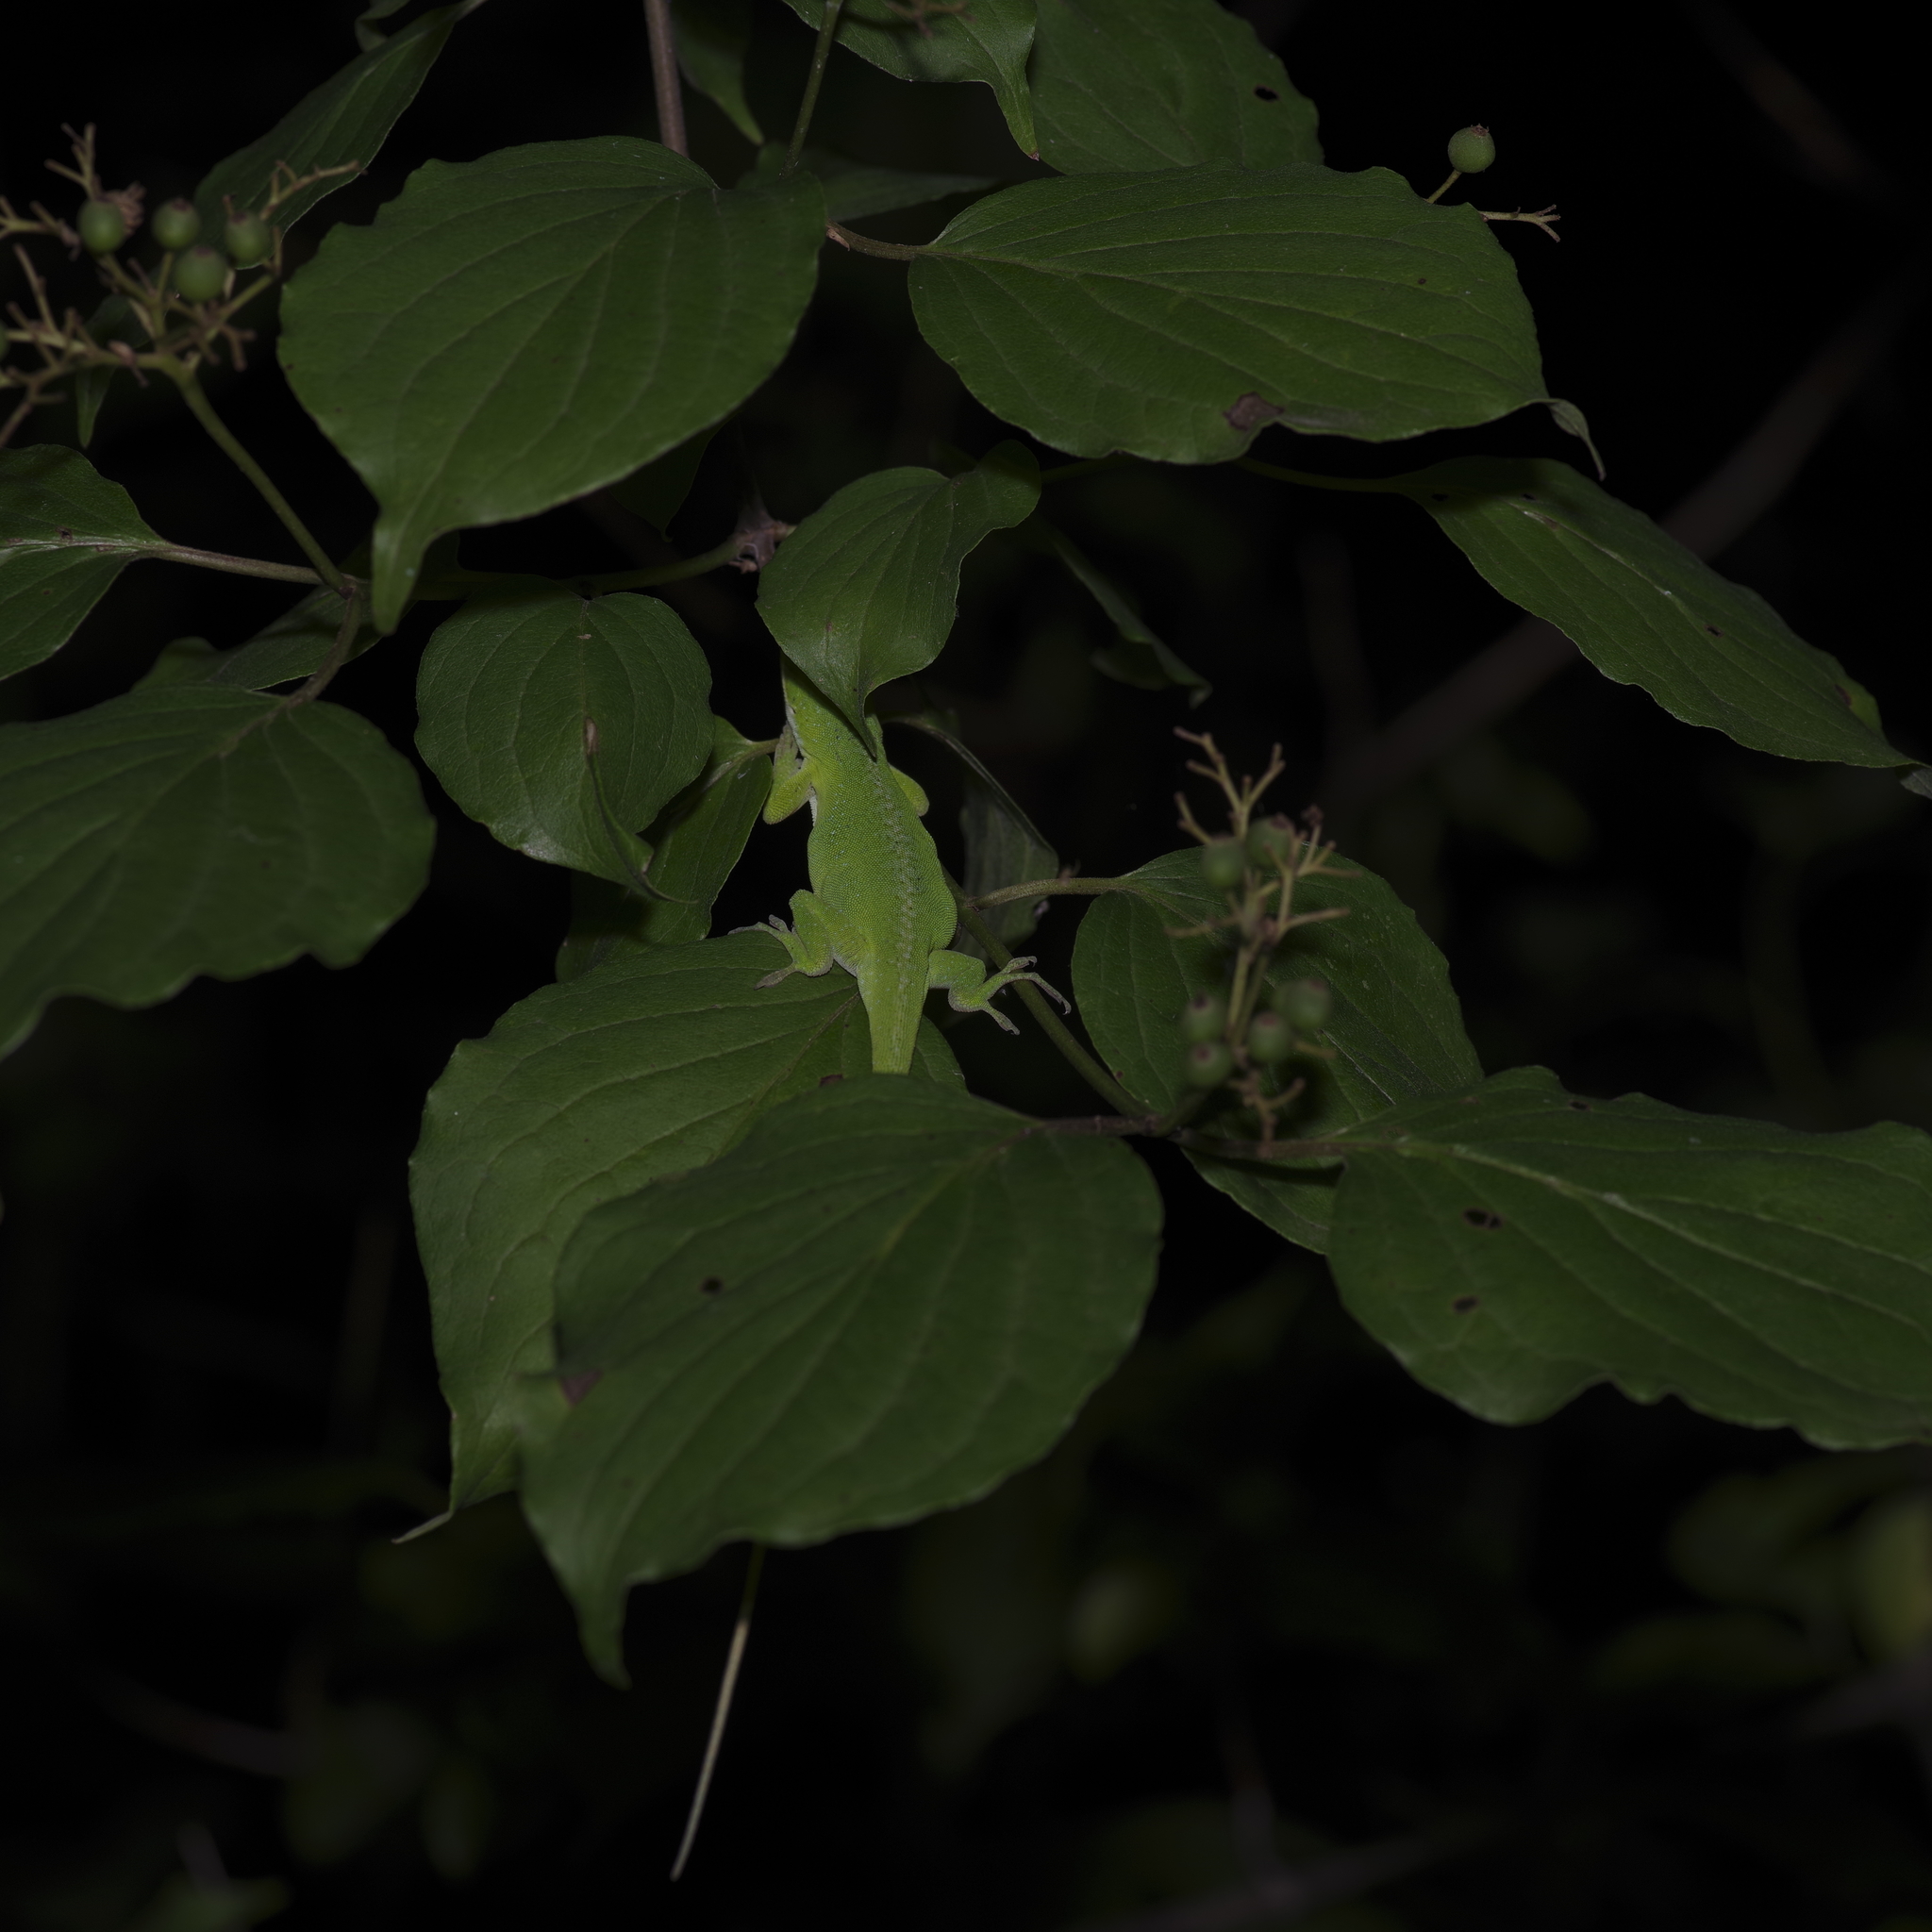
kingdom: Animalia
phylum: Chordata
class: Squamata
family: Dactyloidae
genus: Anolis
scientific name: Anolis carolinensis
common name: Green anole
